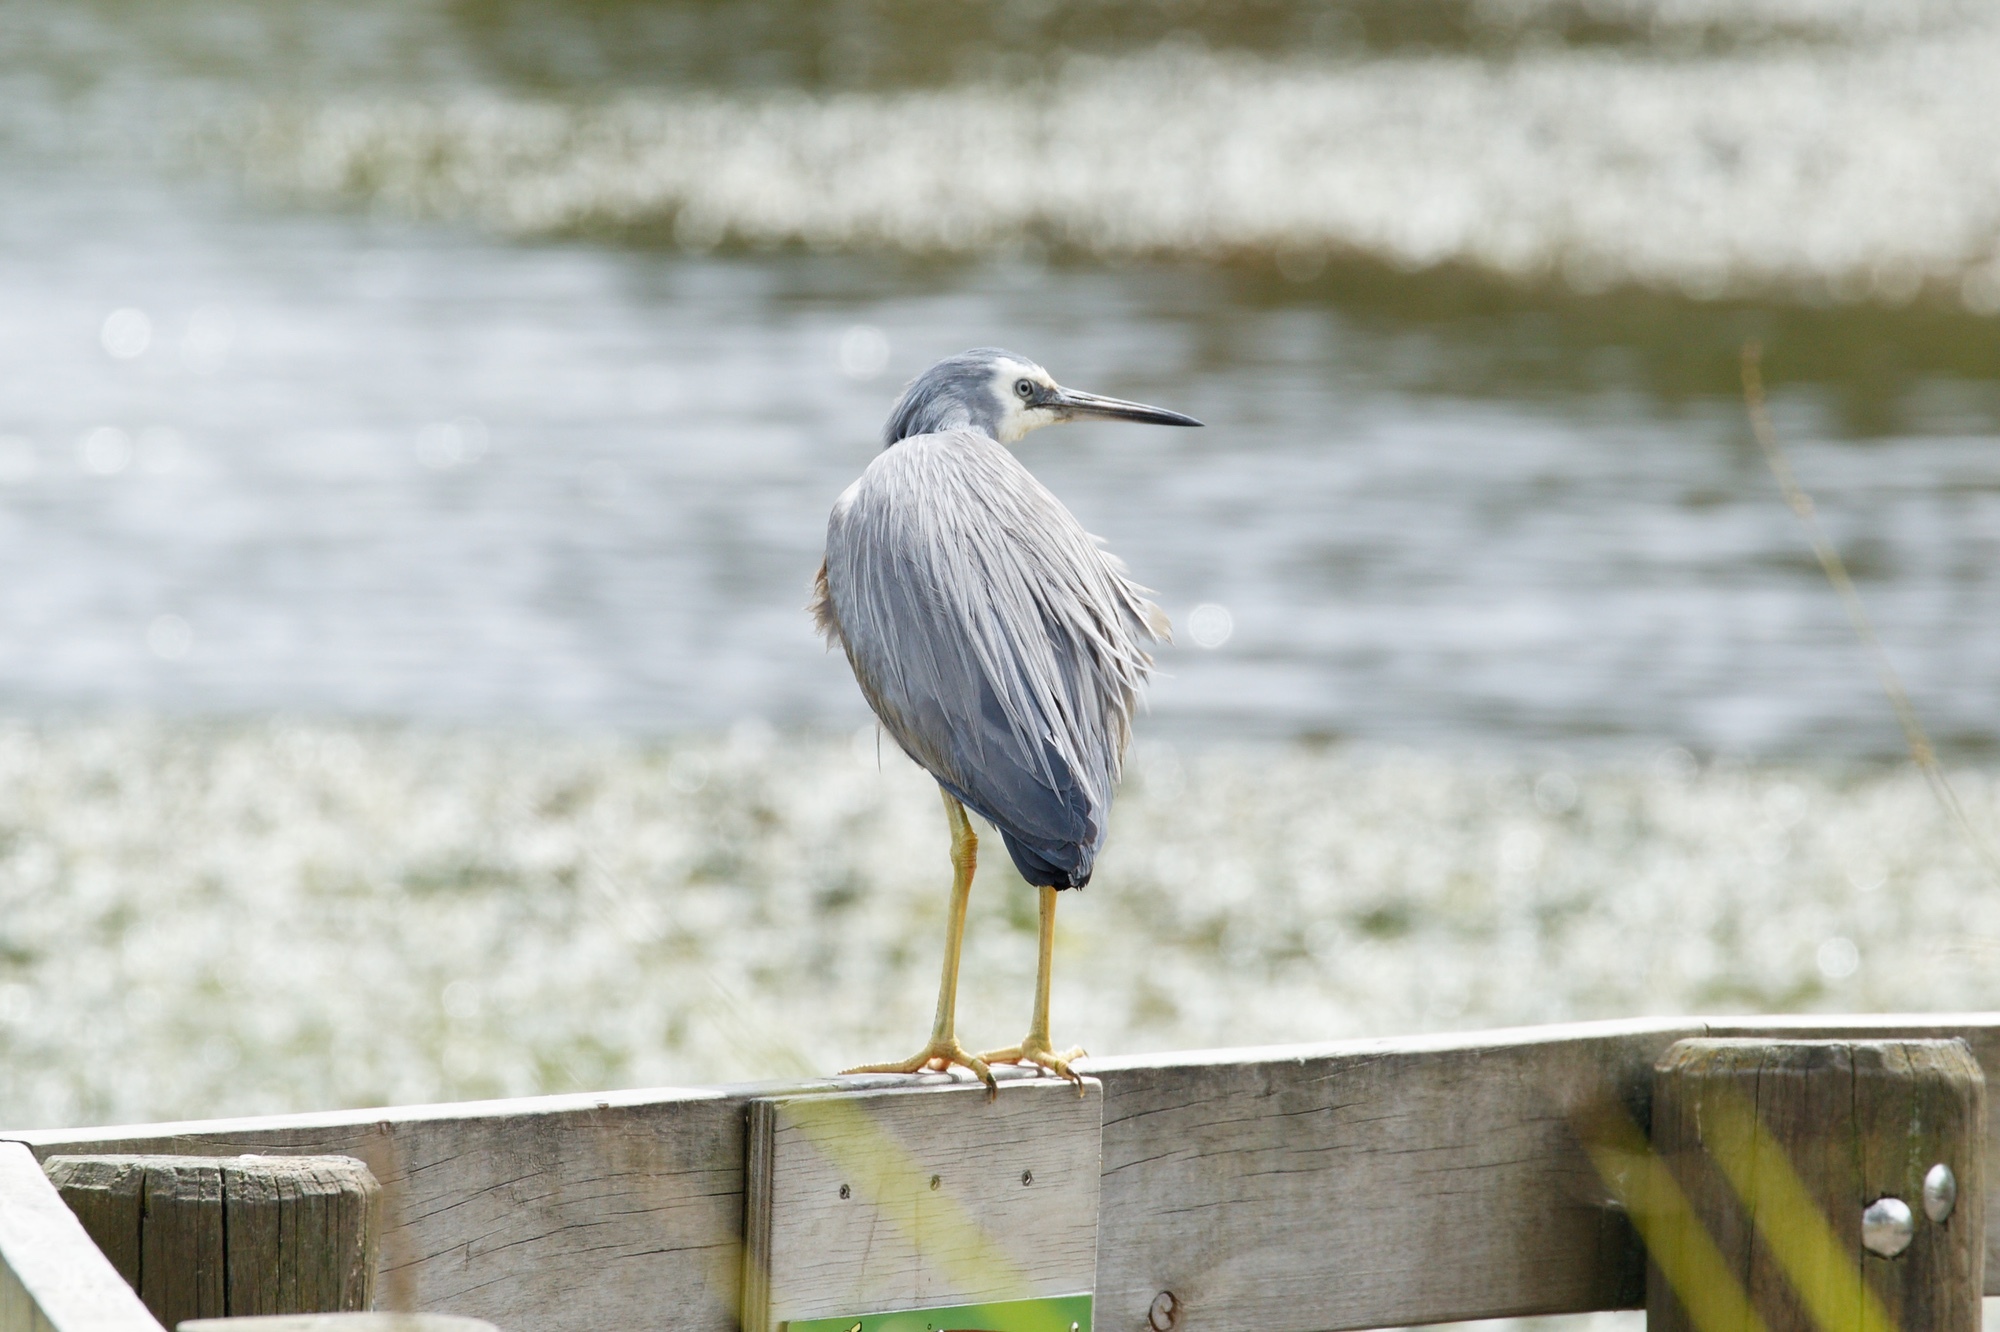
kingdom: Animalia
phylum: Chordata
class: Aves
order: Pelecaniformes
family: Ardeidae
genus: Egretta
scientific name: Egretta novaehollandiae
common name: White-faced heron
